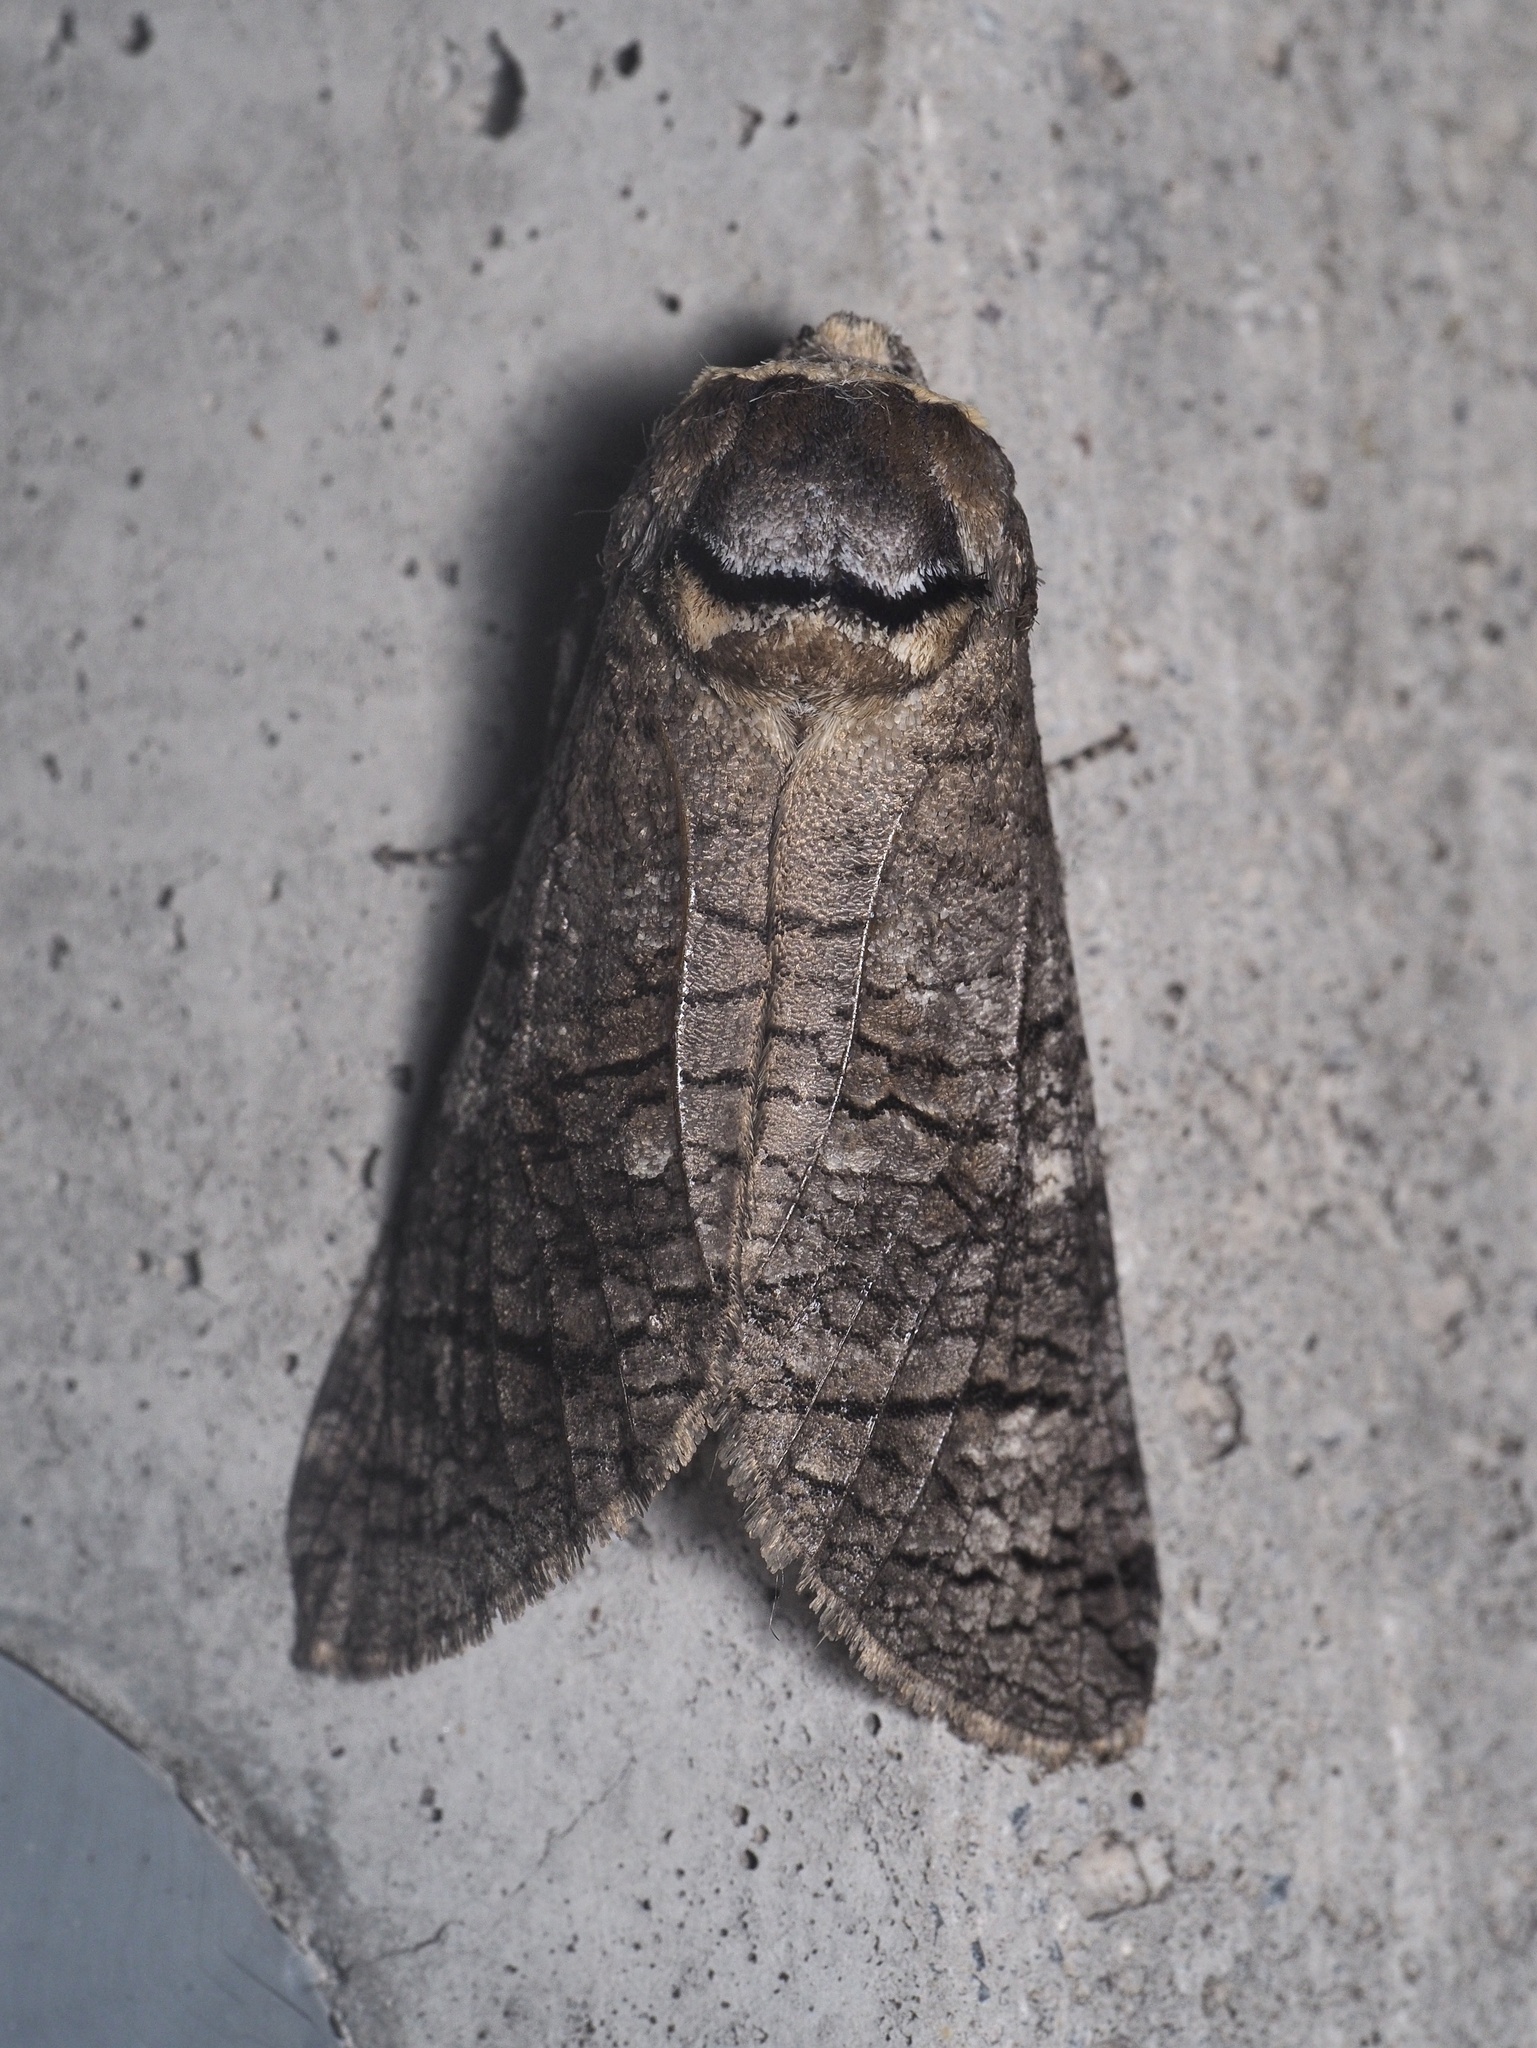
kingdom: Animalia
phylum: Arthropoda
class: Insecta
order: Lepidoptera
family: Cossidae
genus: Cossus
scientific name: Cossus cossus
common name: Goat moth
